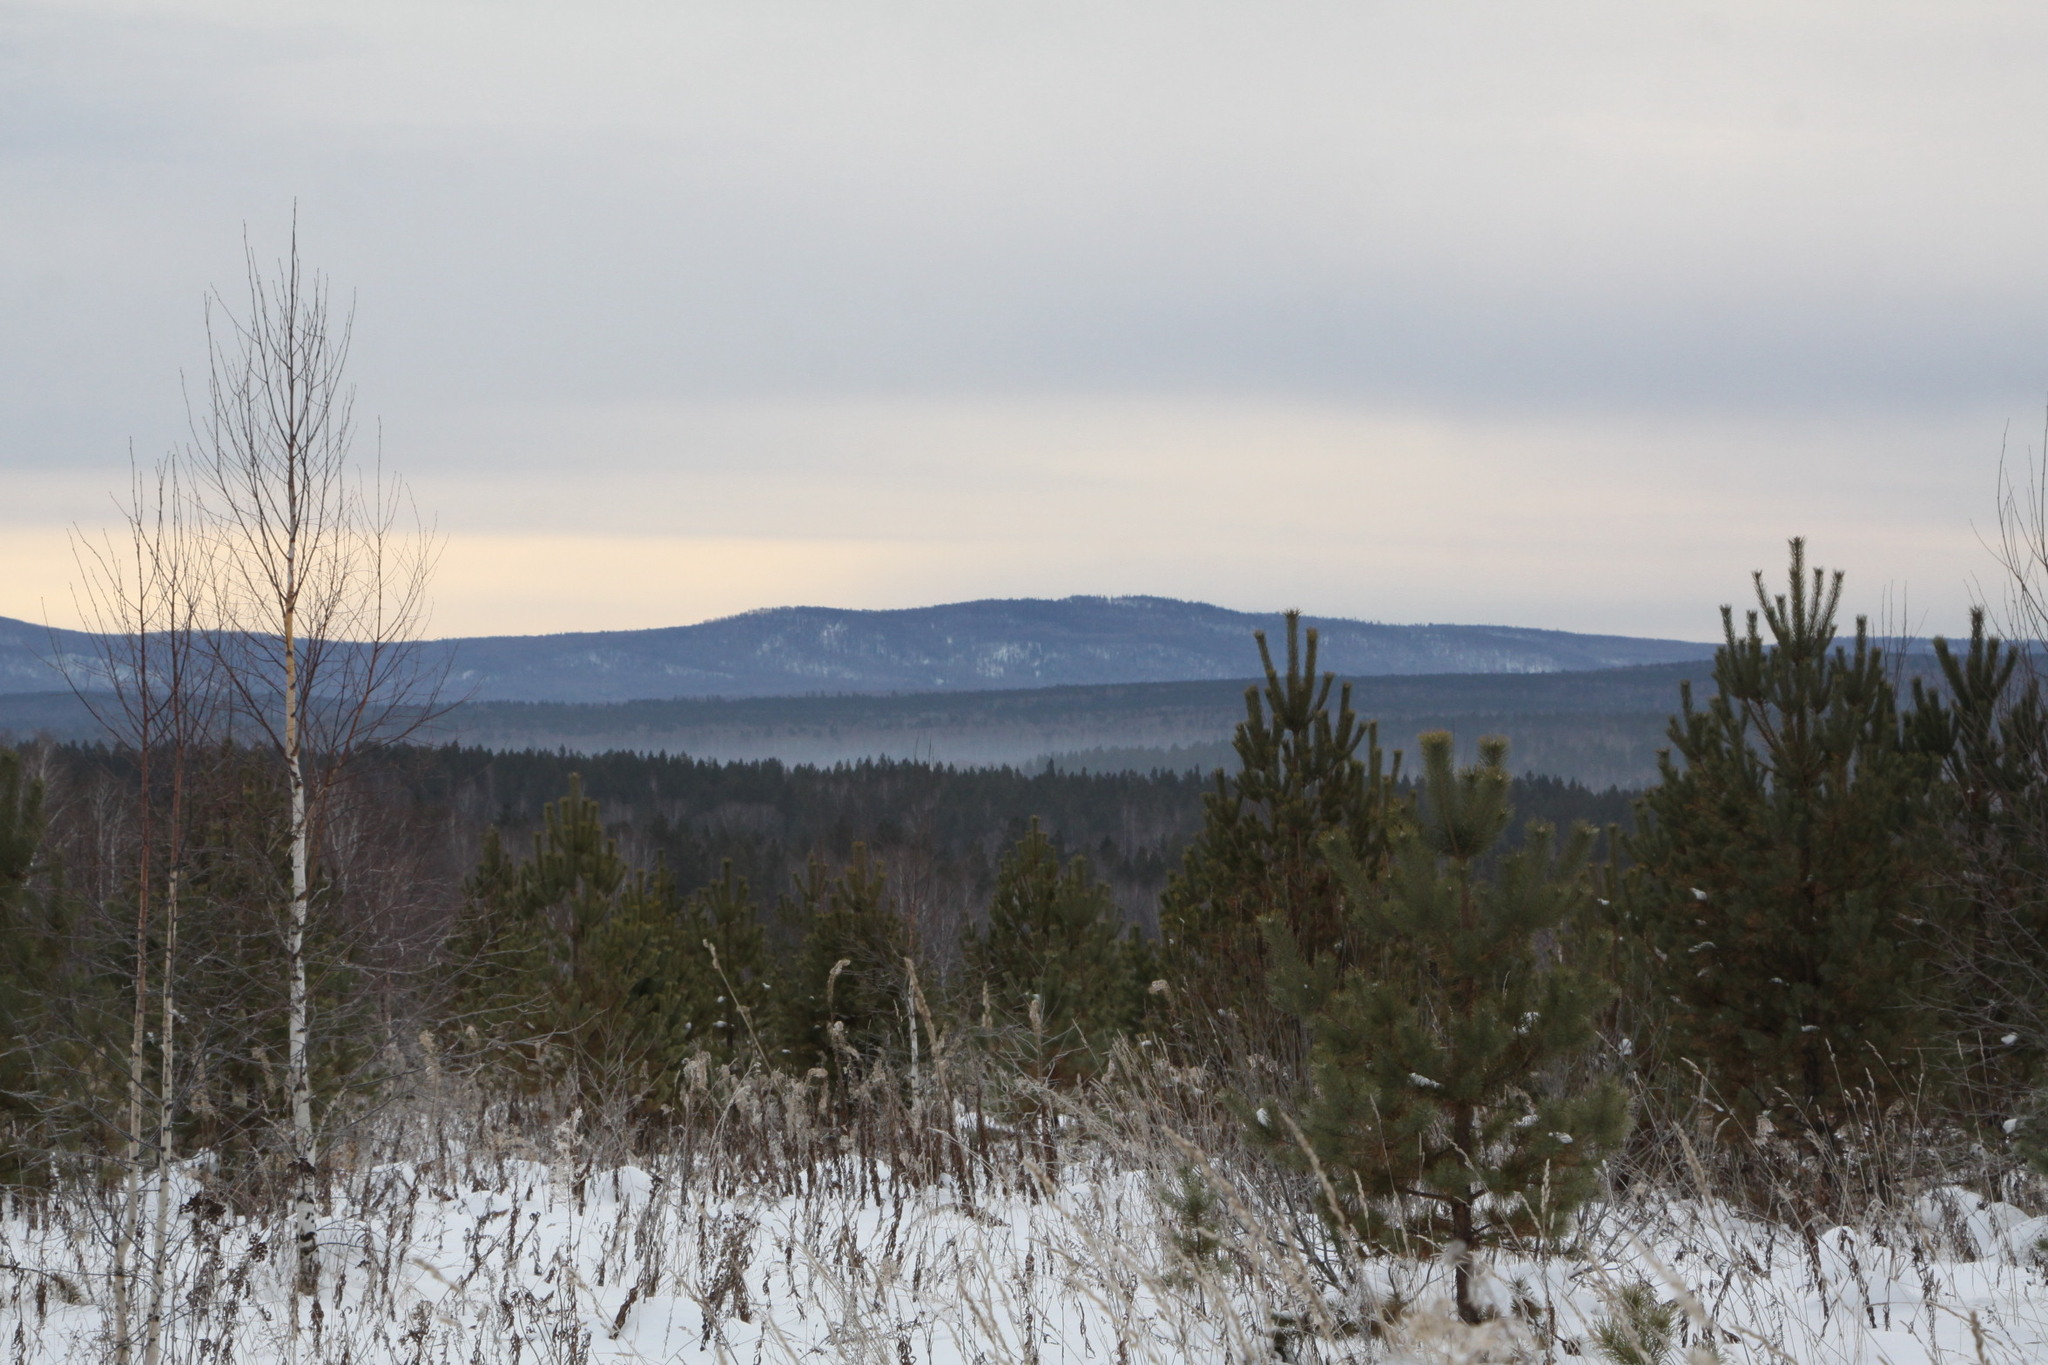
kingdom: Plantae
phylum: Tracheophyta
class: Pinopsida
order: Pinales
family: Pinaceae
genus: Pinus
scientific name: Pinus sylvestris
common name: Scots pine
